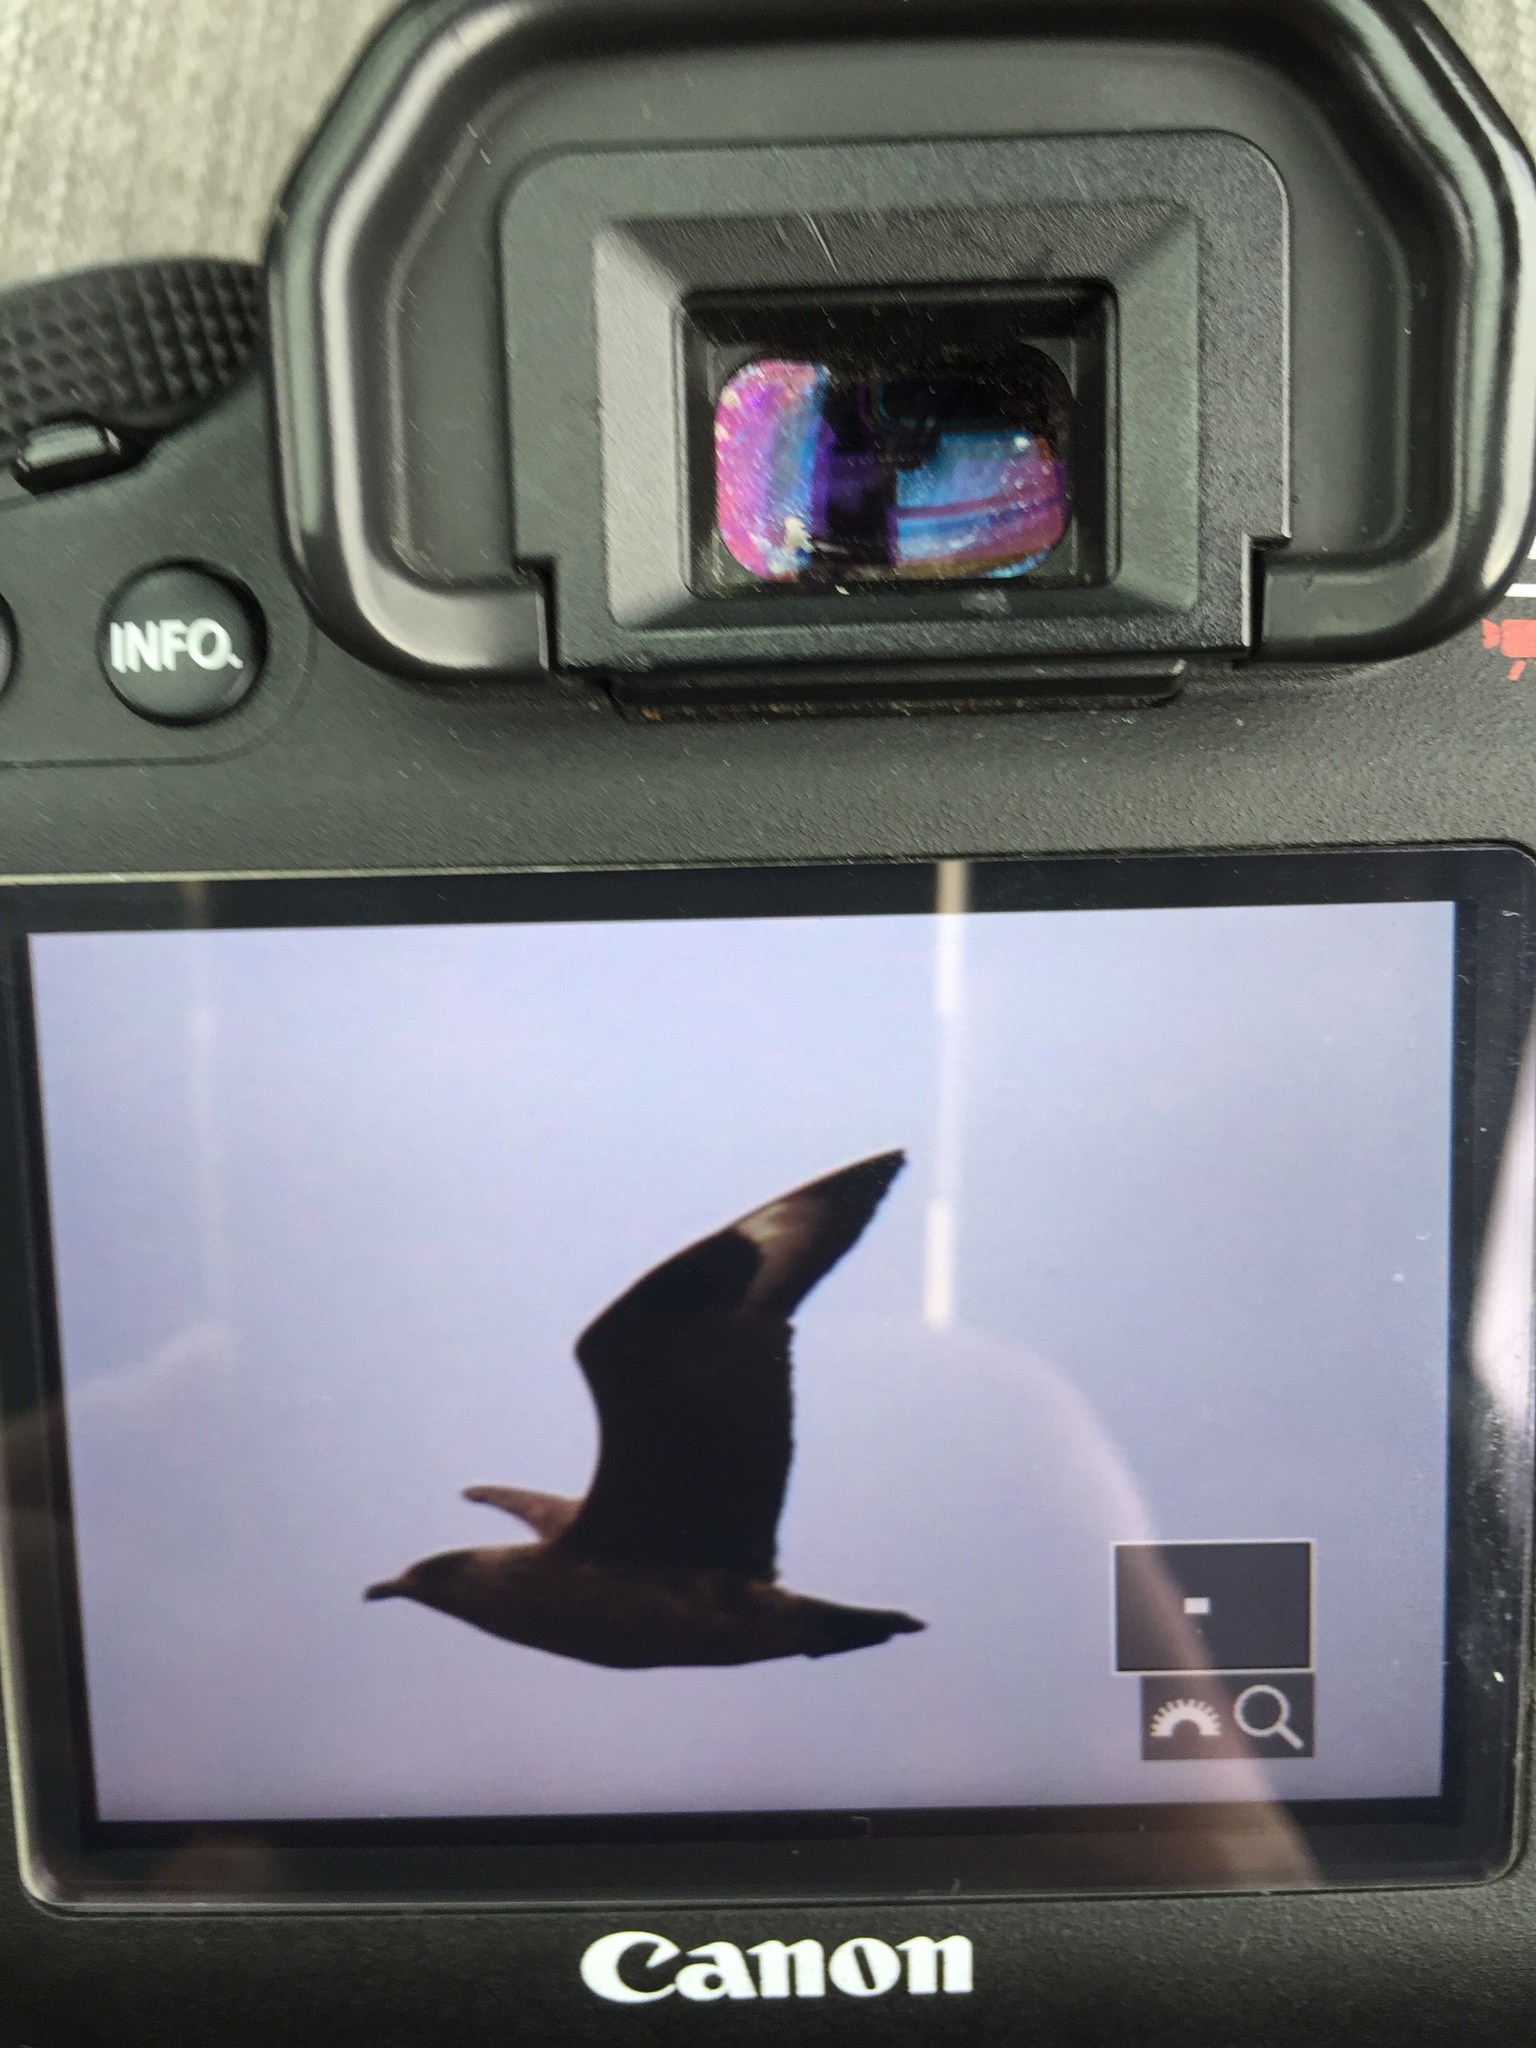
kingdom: Animalia
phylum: Chordata
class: Aves
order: Charadriiformes
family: Stercorariidae
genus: Stercorarius
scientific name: Stercorarius skua
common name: Great skua
